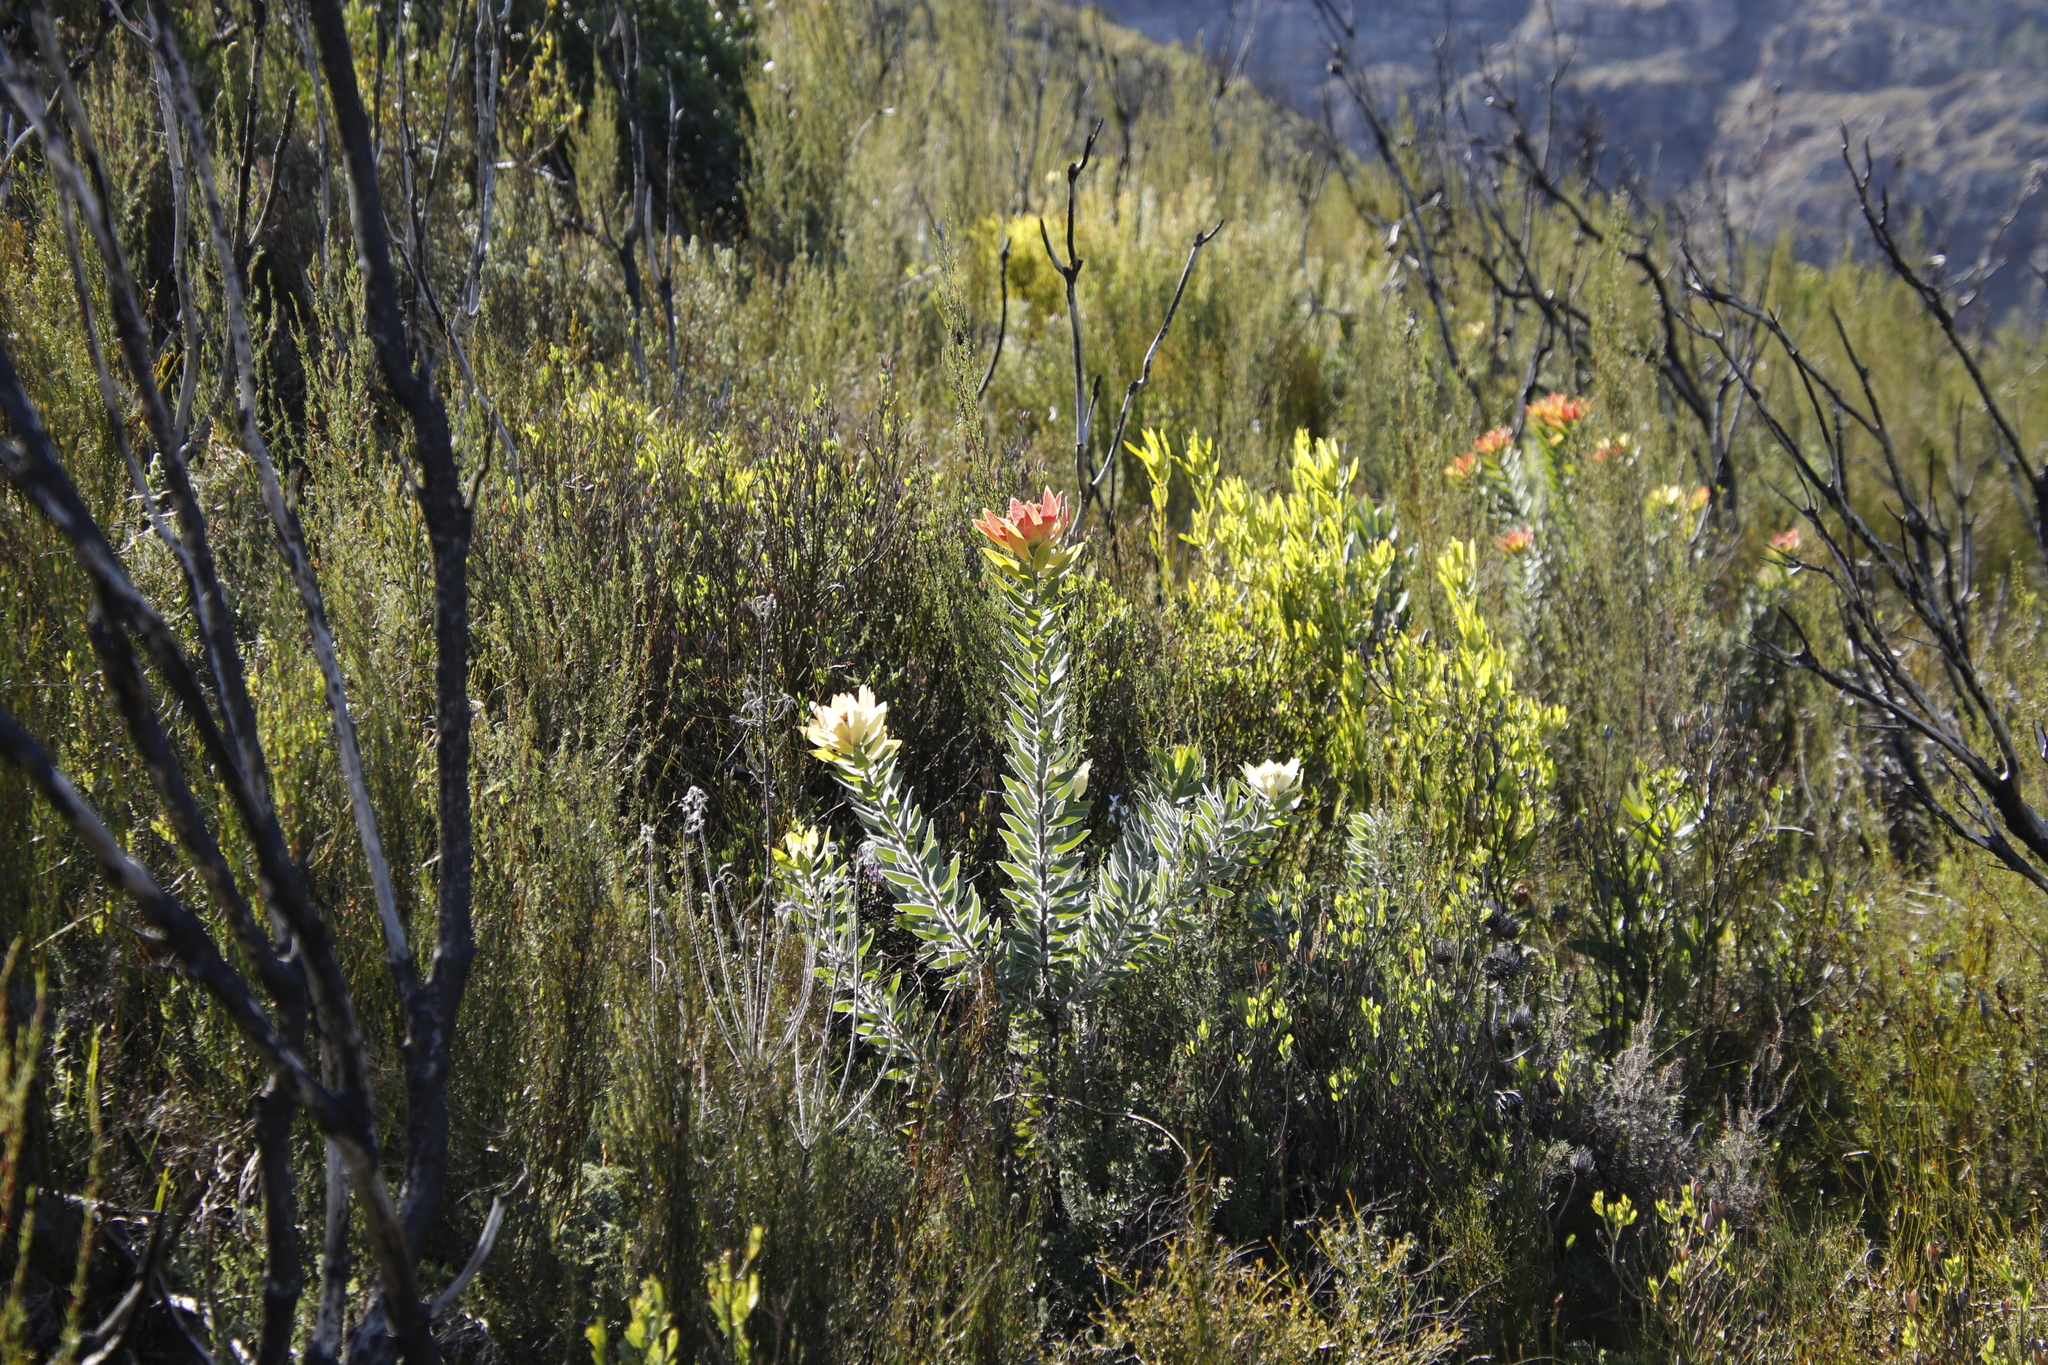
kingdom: Plantae
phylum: Tracheophyta
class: Magnoliopsida
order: Proteales
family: Proteaceae
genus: Leucadendron
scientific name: Leucadendron daphnoides
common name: Du toit's kloof conebush
